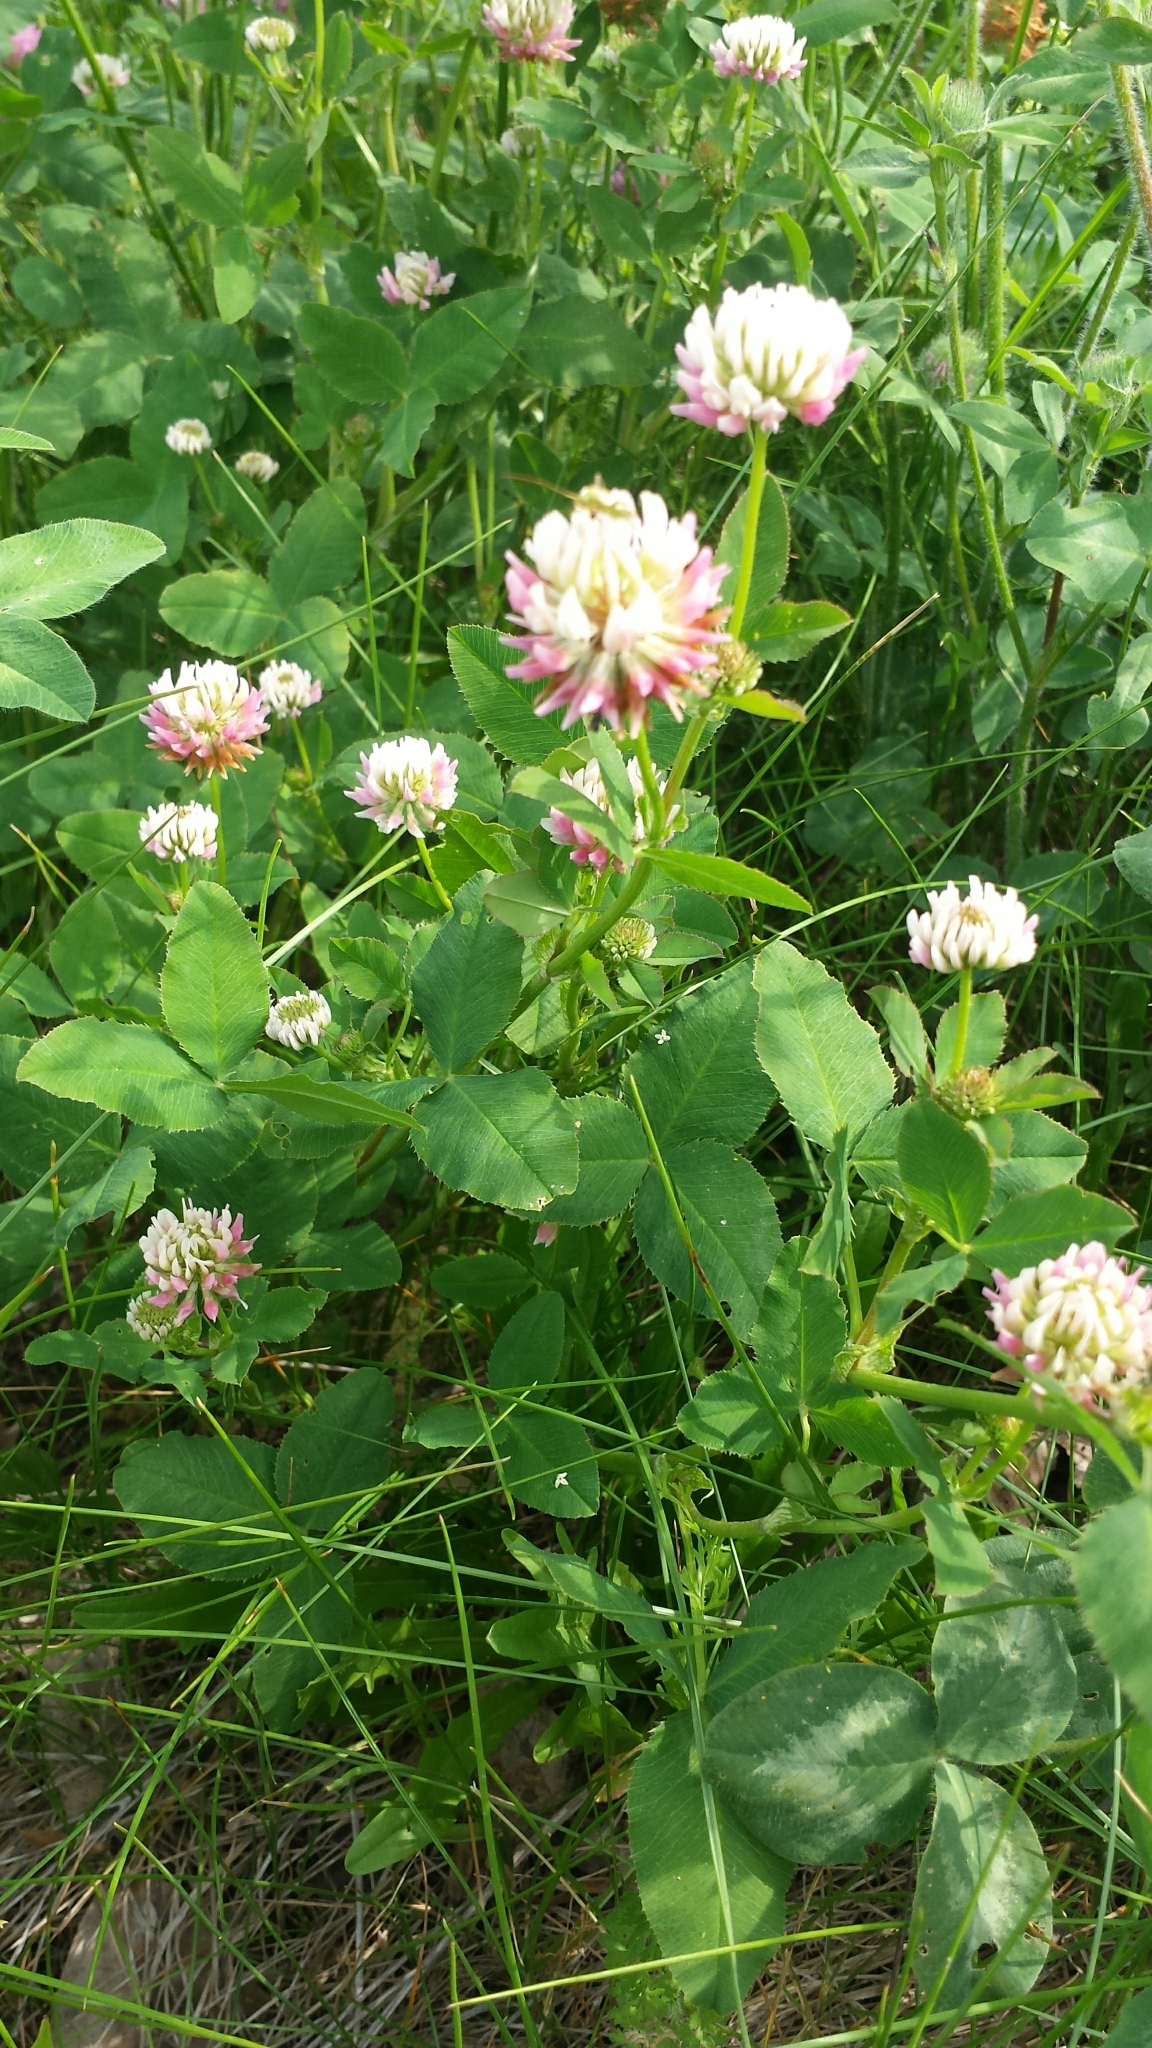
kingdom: Plantae
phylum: Tracheophyta
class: Magnoliopsida
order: Fabales
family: Fabaceae
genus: Trifolium
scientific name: Trifolium hybridum
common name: Alsike clover
